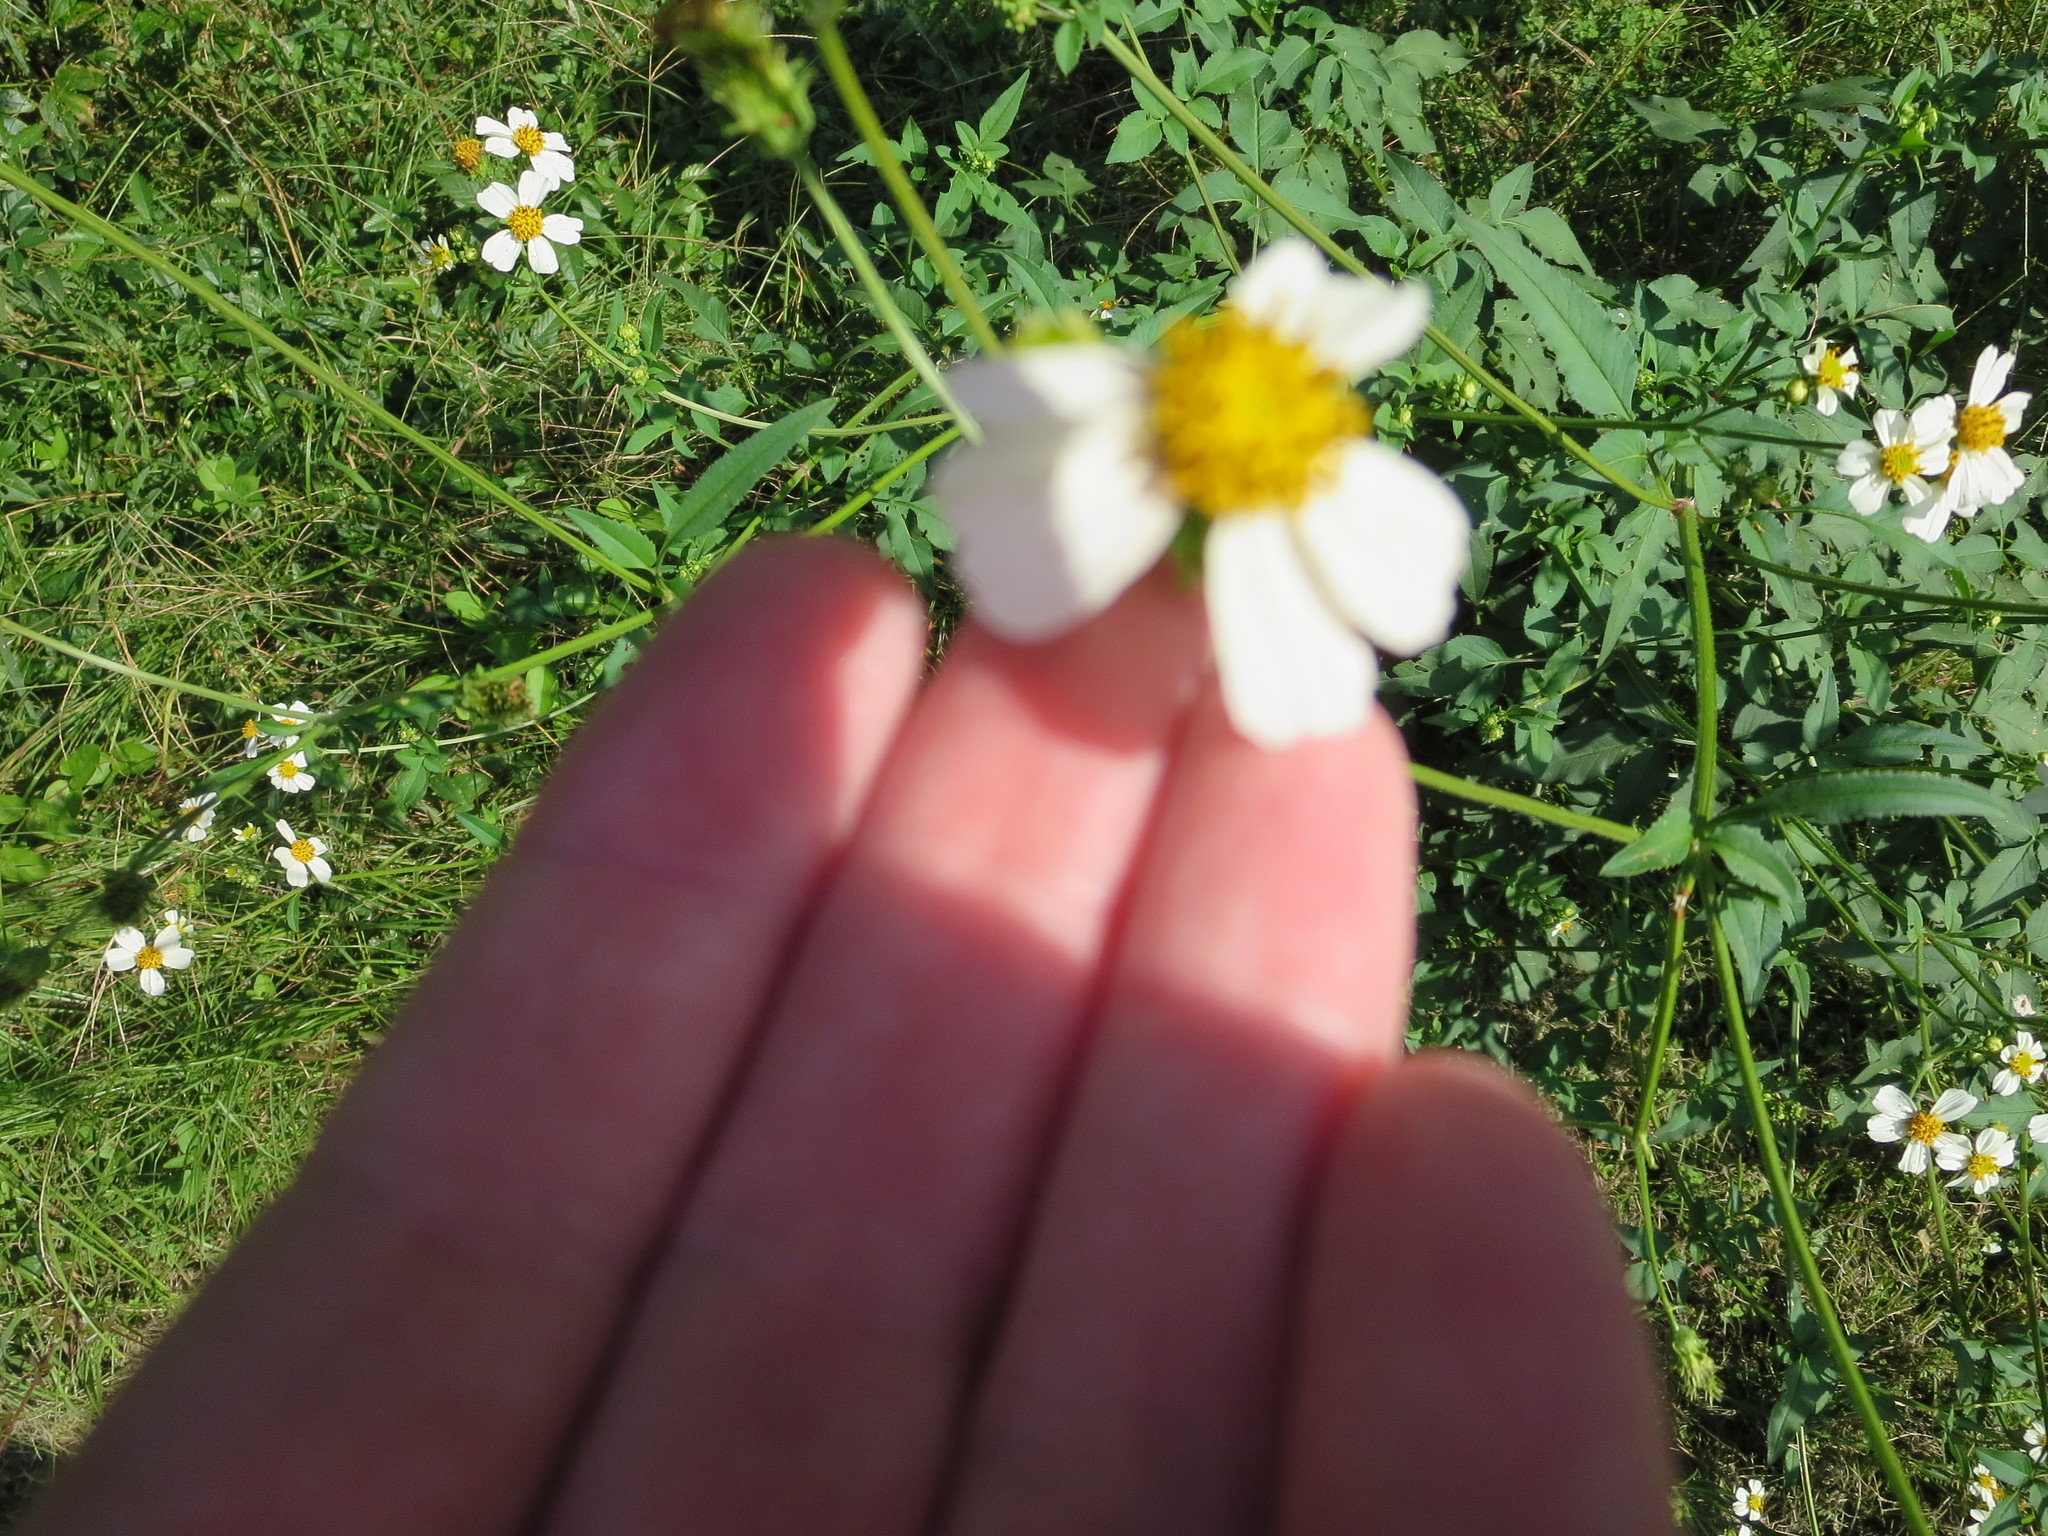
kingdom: Plantae
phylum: Tracheophyta
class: Magnoliopsida
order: Asterales
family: Asteraceae
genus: Bidens
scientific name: Bidens alba
